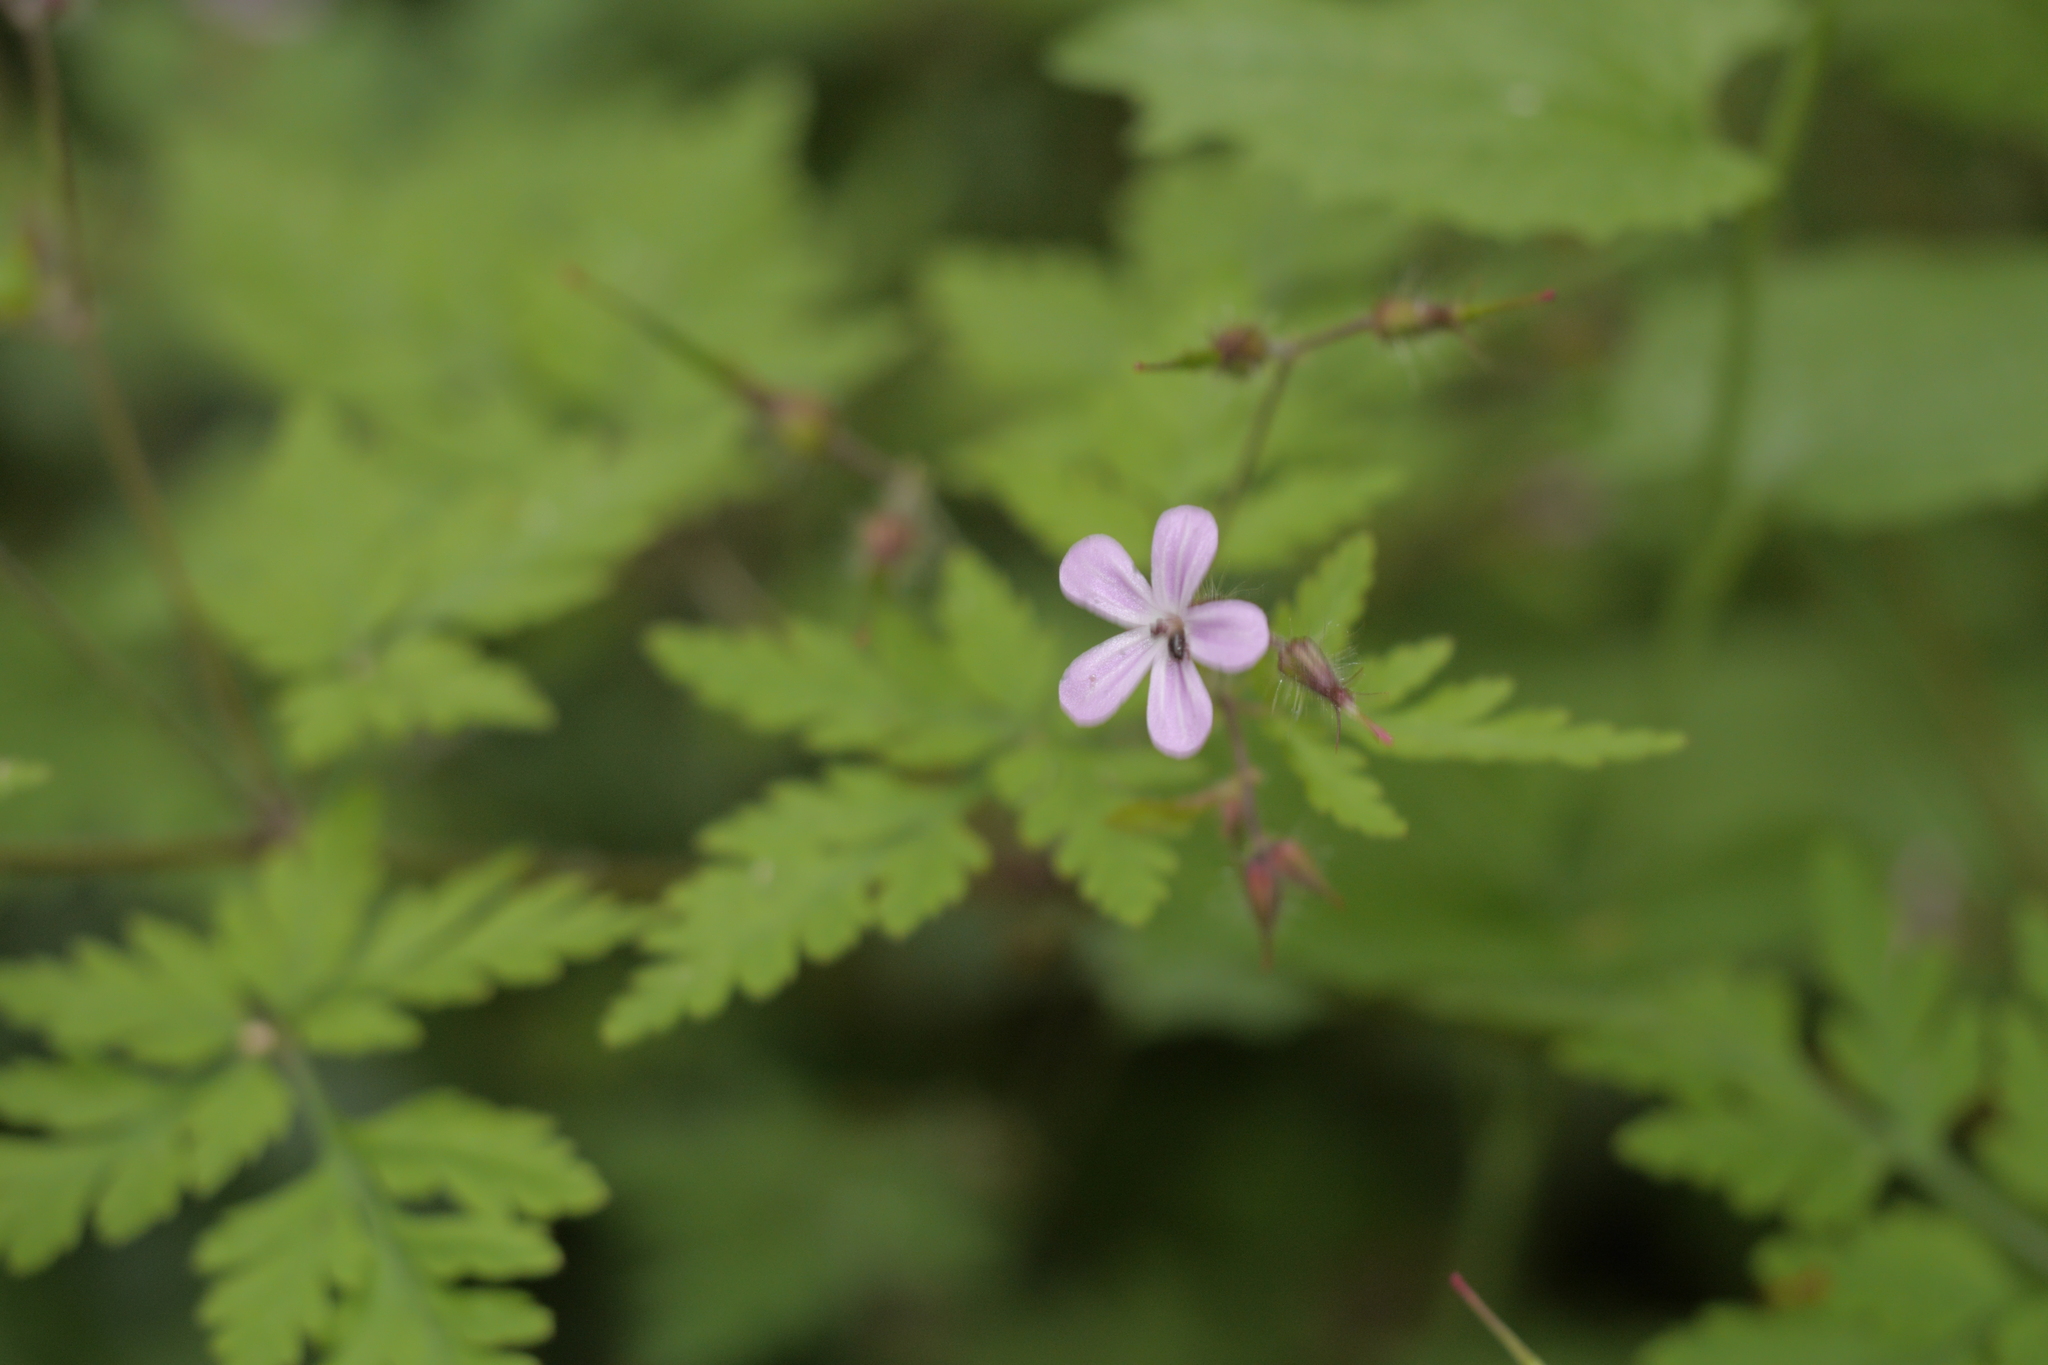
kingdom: Plantae
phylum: Tracheophyta
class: Magnoliopsida
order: Geraniales
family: Geraniaceae
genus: Geranium
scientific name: Geranium robertianum
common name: Herb-robert
